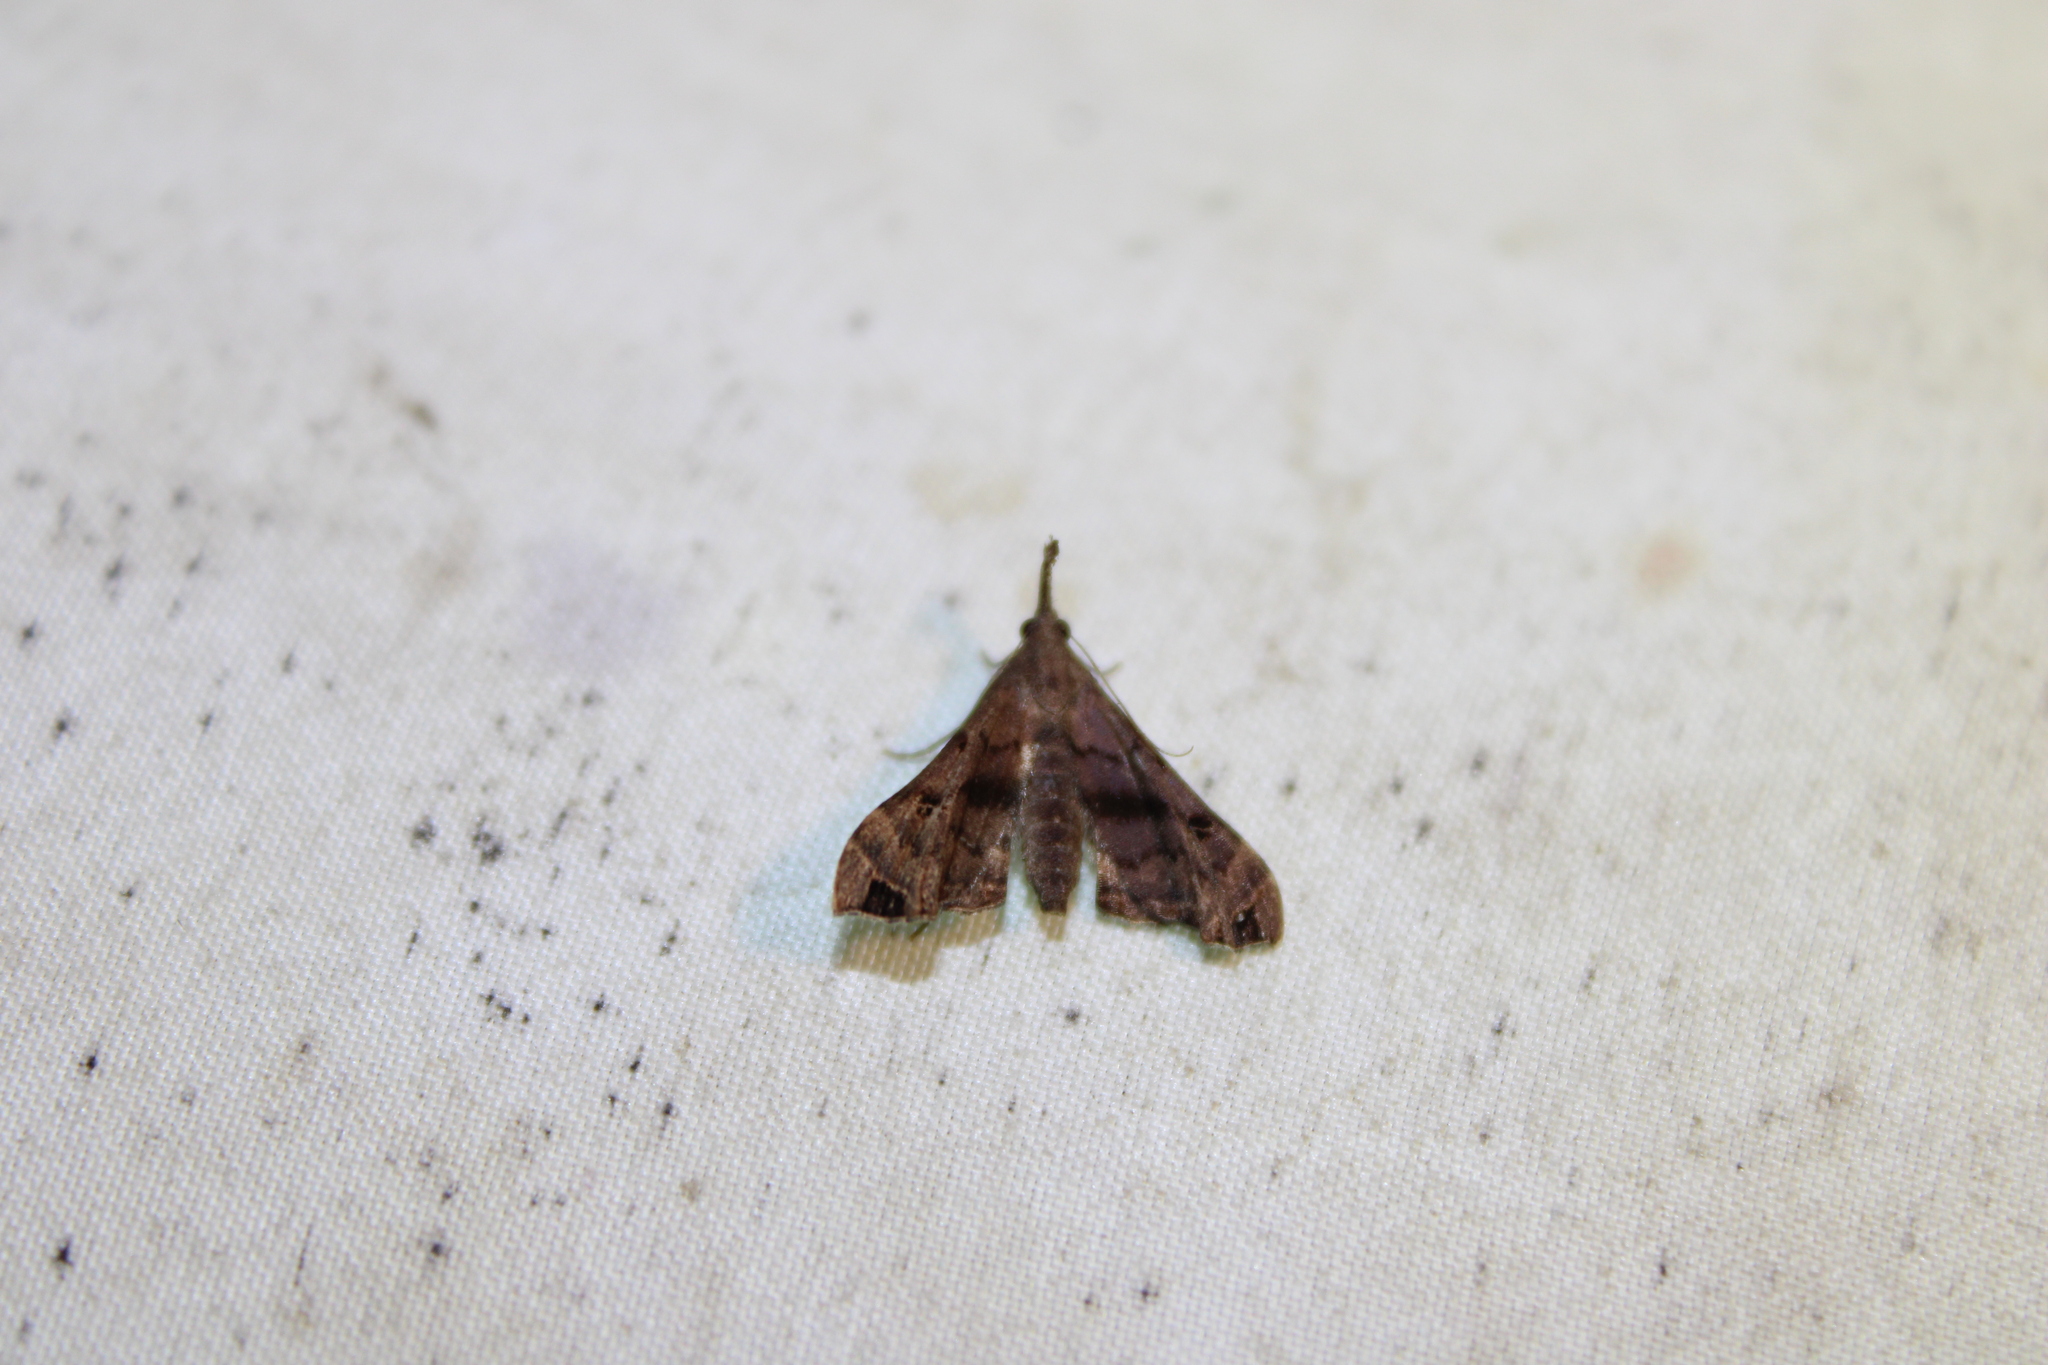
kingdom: Animalia
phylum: Arthropoda
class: Insecta
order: Lepidoptera
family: Erebidae
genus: Palthis
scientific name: Palthis asopialis
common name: Faint-spotted palthis moth
